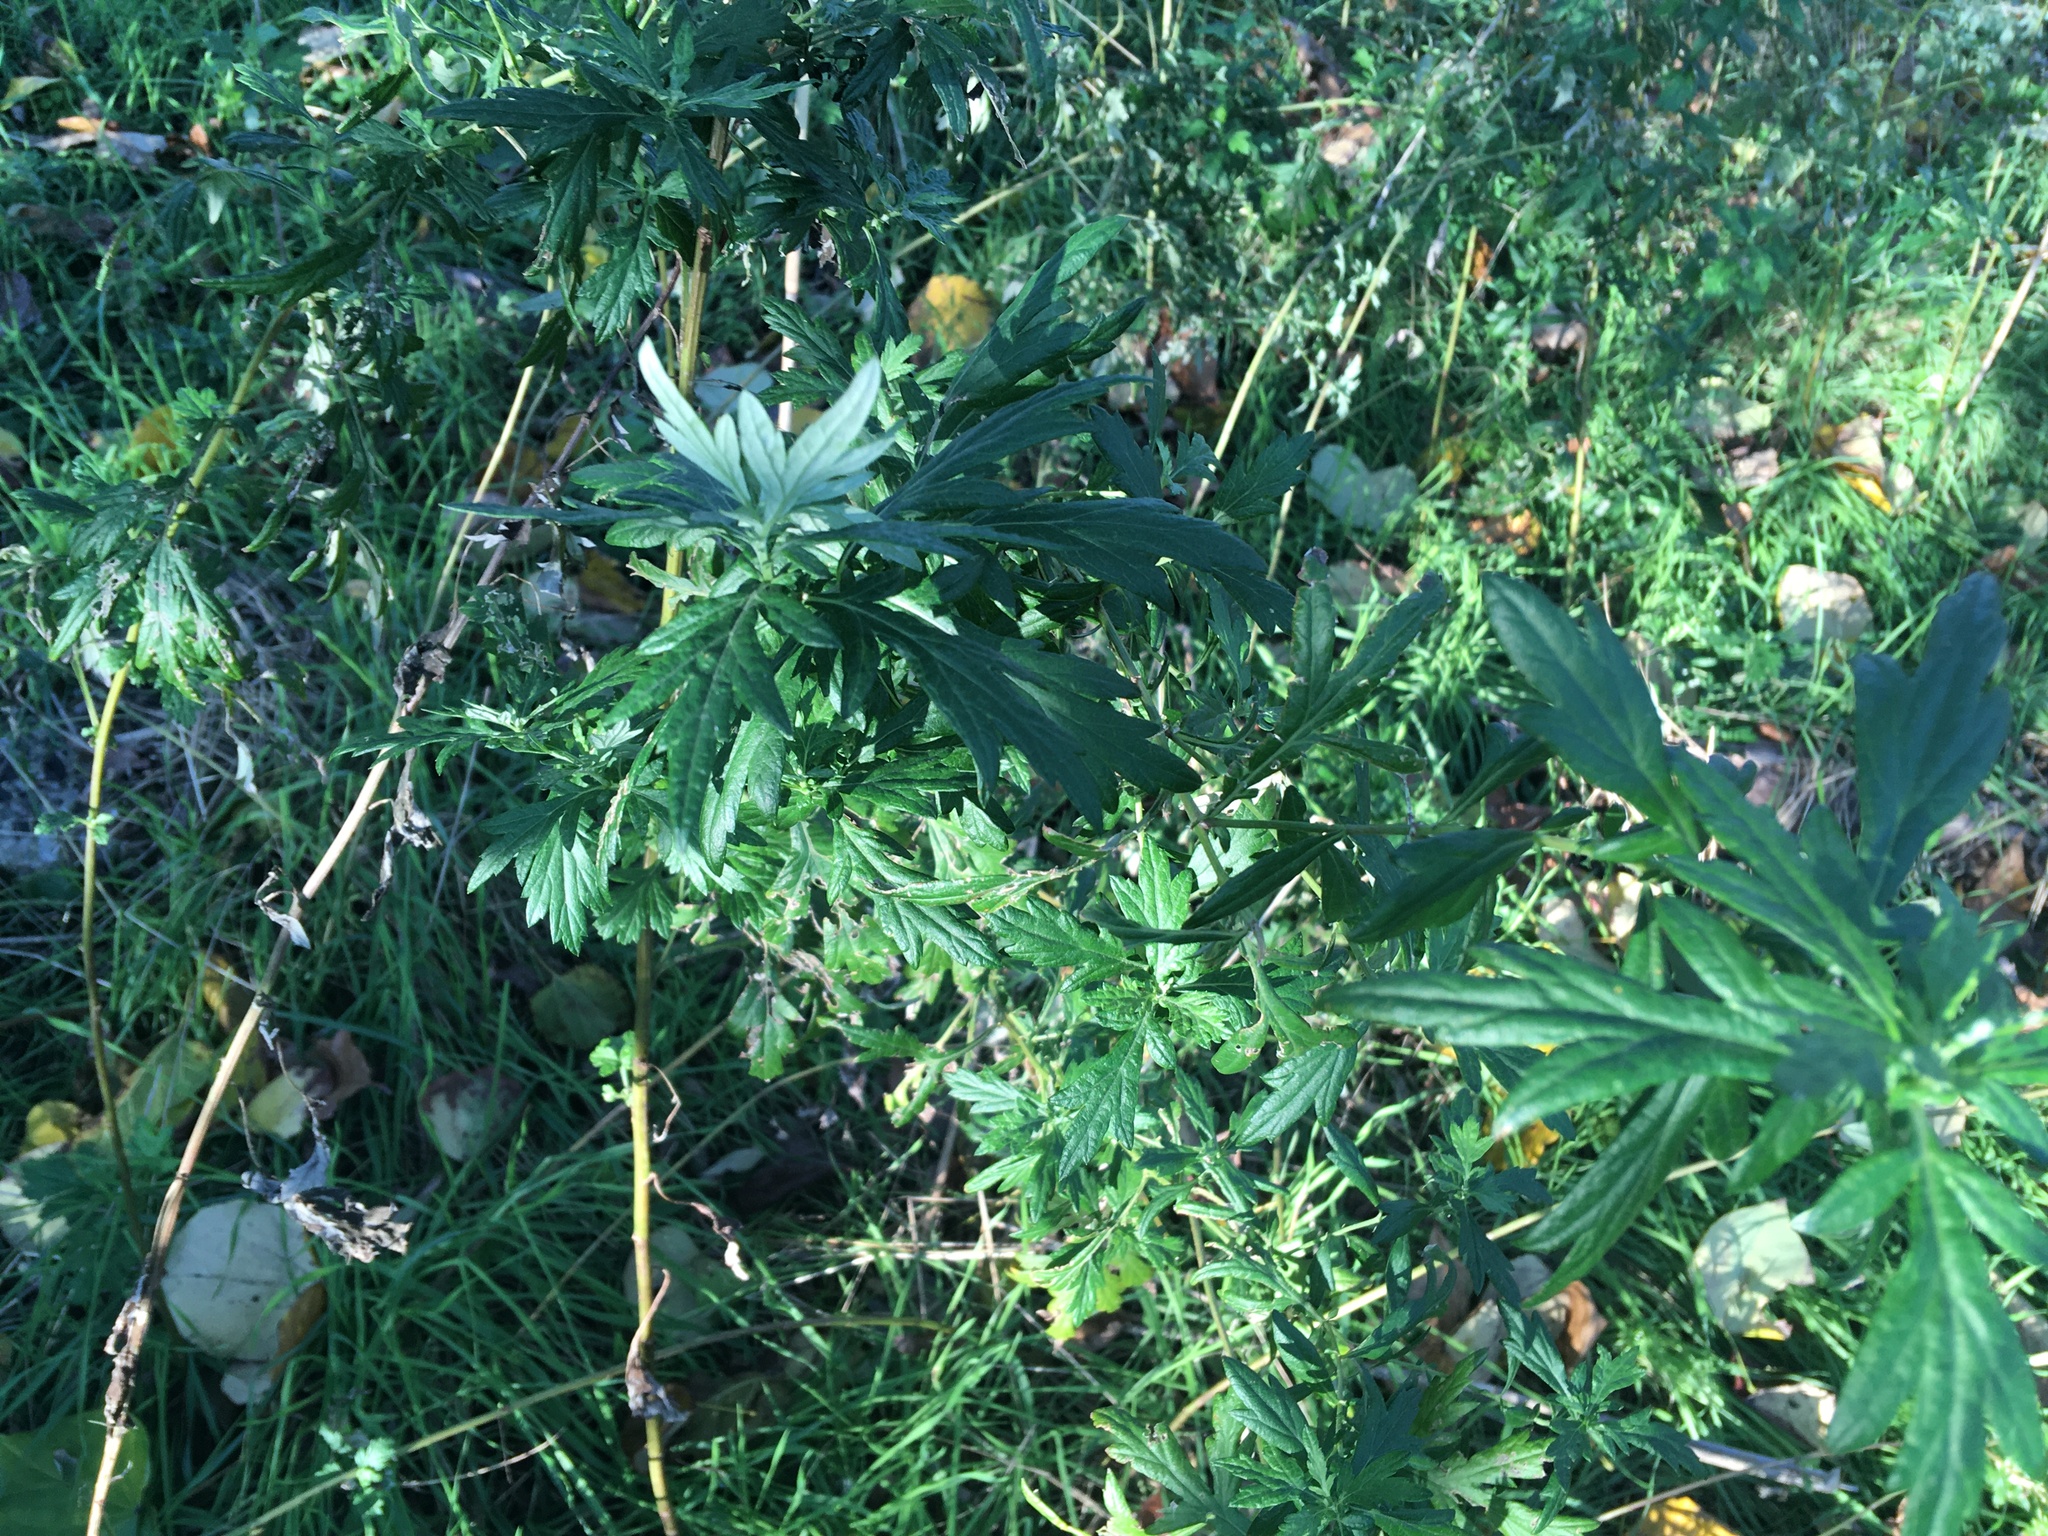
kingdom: Plantae
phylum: Tracheophyta
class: Magnoliopsida
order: Asterales
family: Asteraceae
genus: Artemisia
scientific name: Artemisia vulgaris
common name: Mugwort
